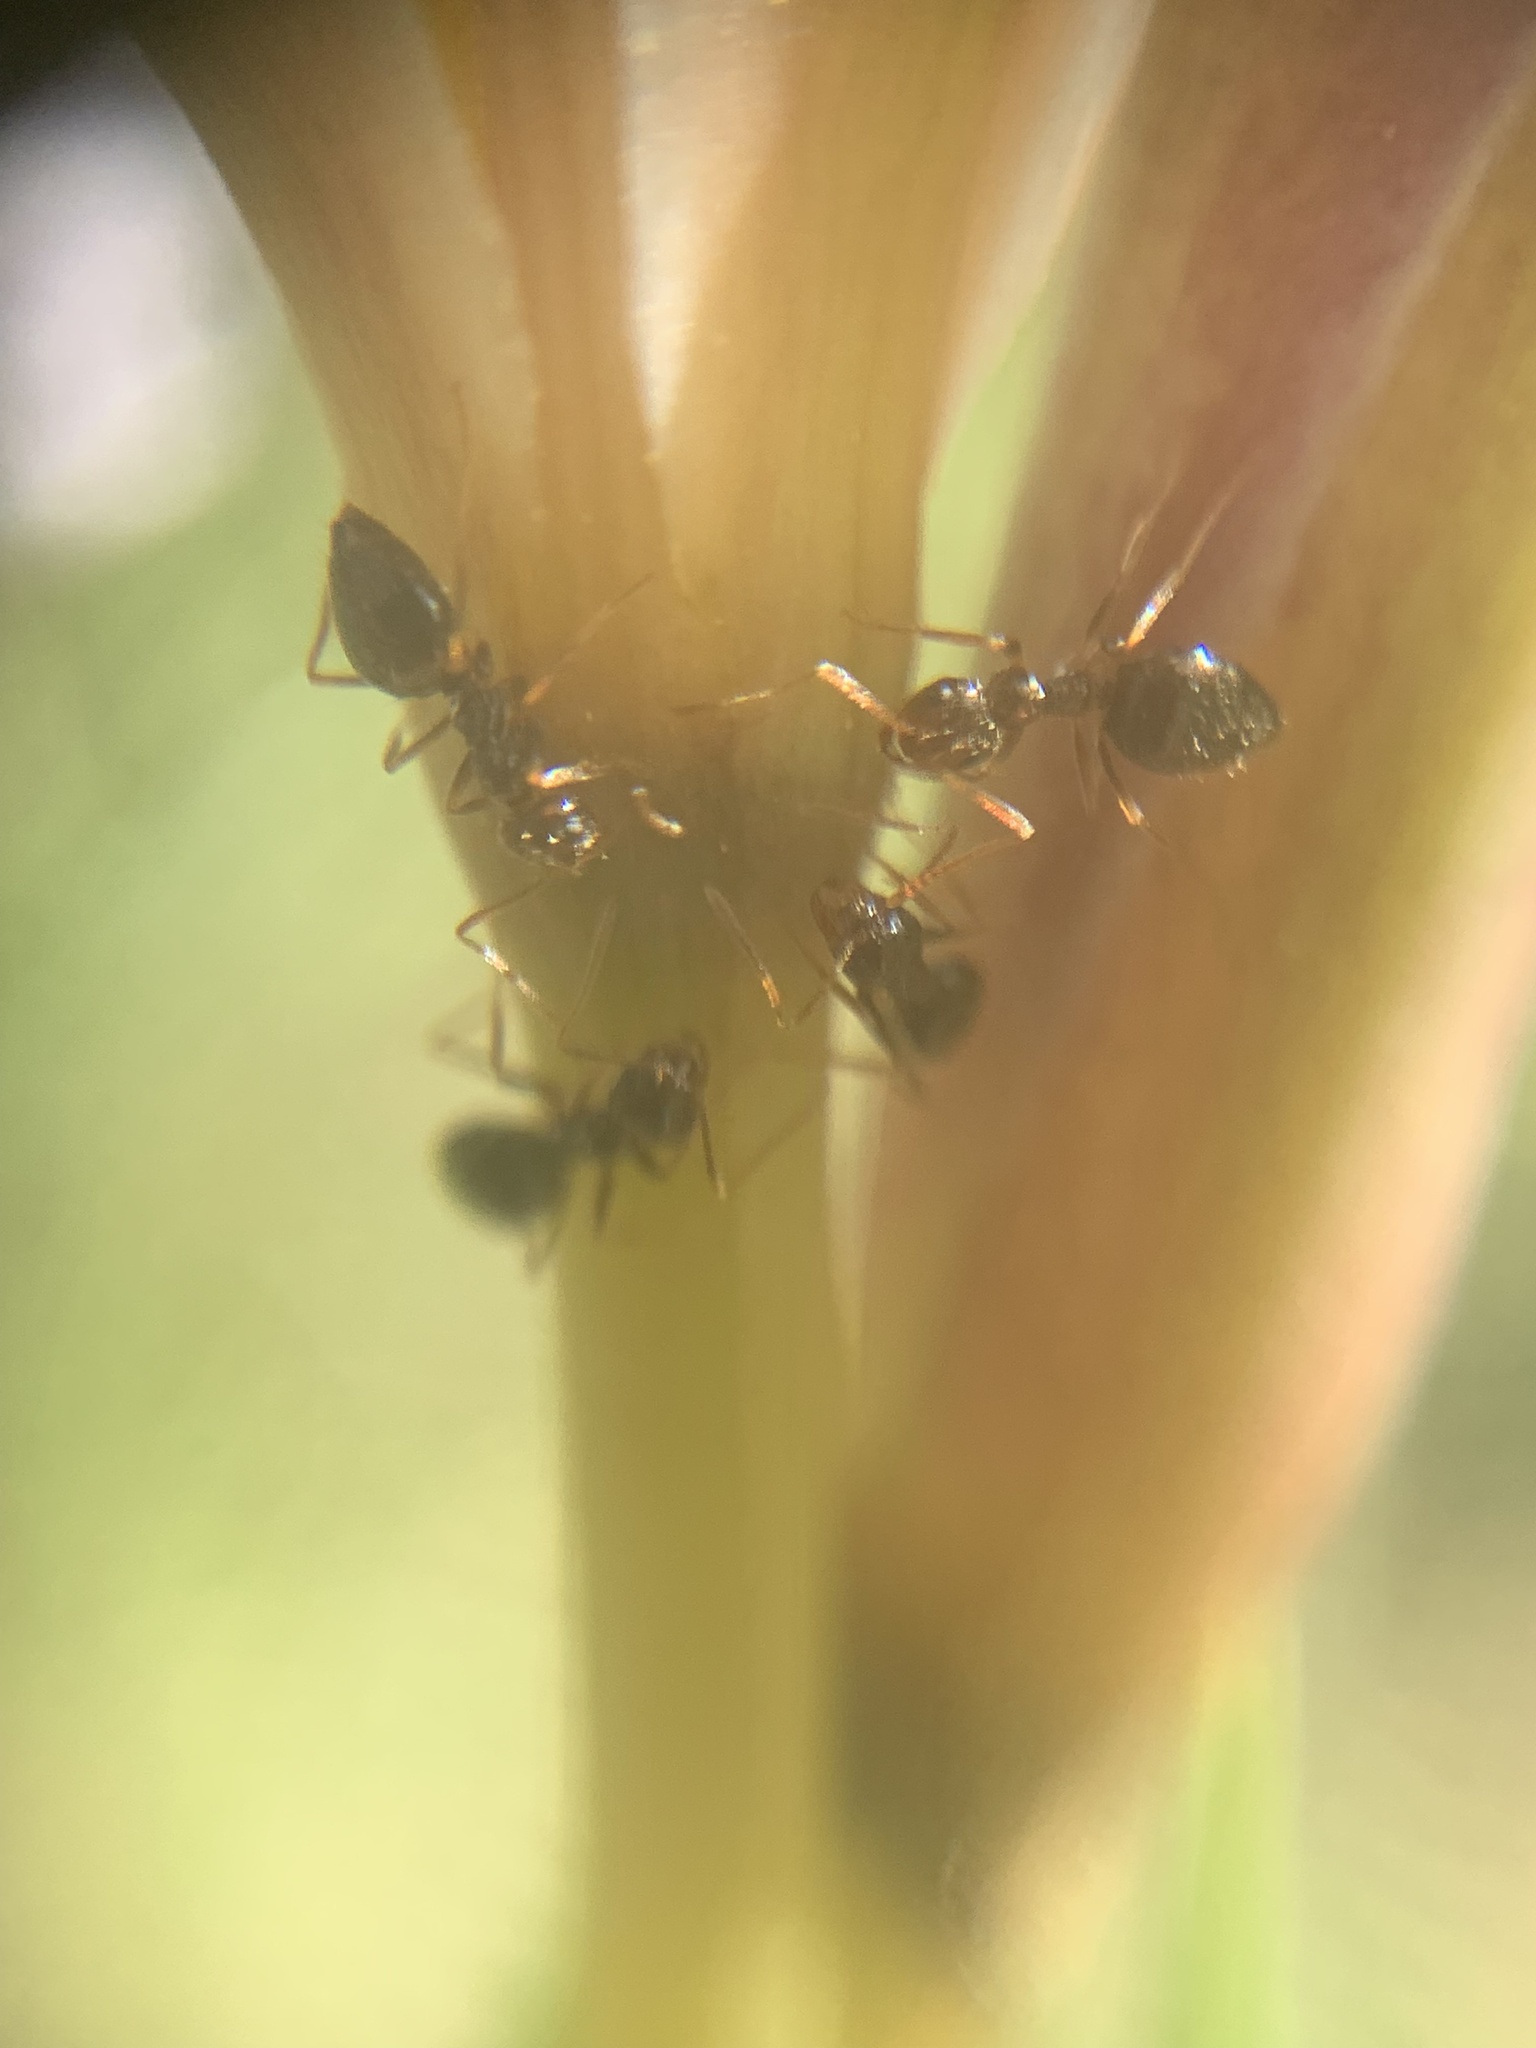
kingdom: Animalia
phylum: Arthropoda
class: Insecta
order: Hymenoptera
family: Formicidae
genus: Prenolepis
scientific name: Prenolepis imparis
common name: Small honey ant
